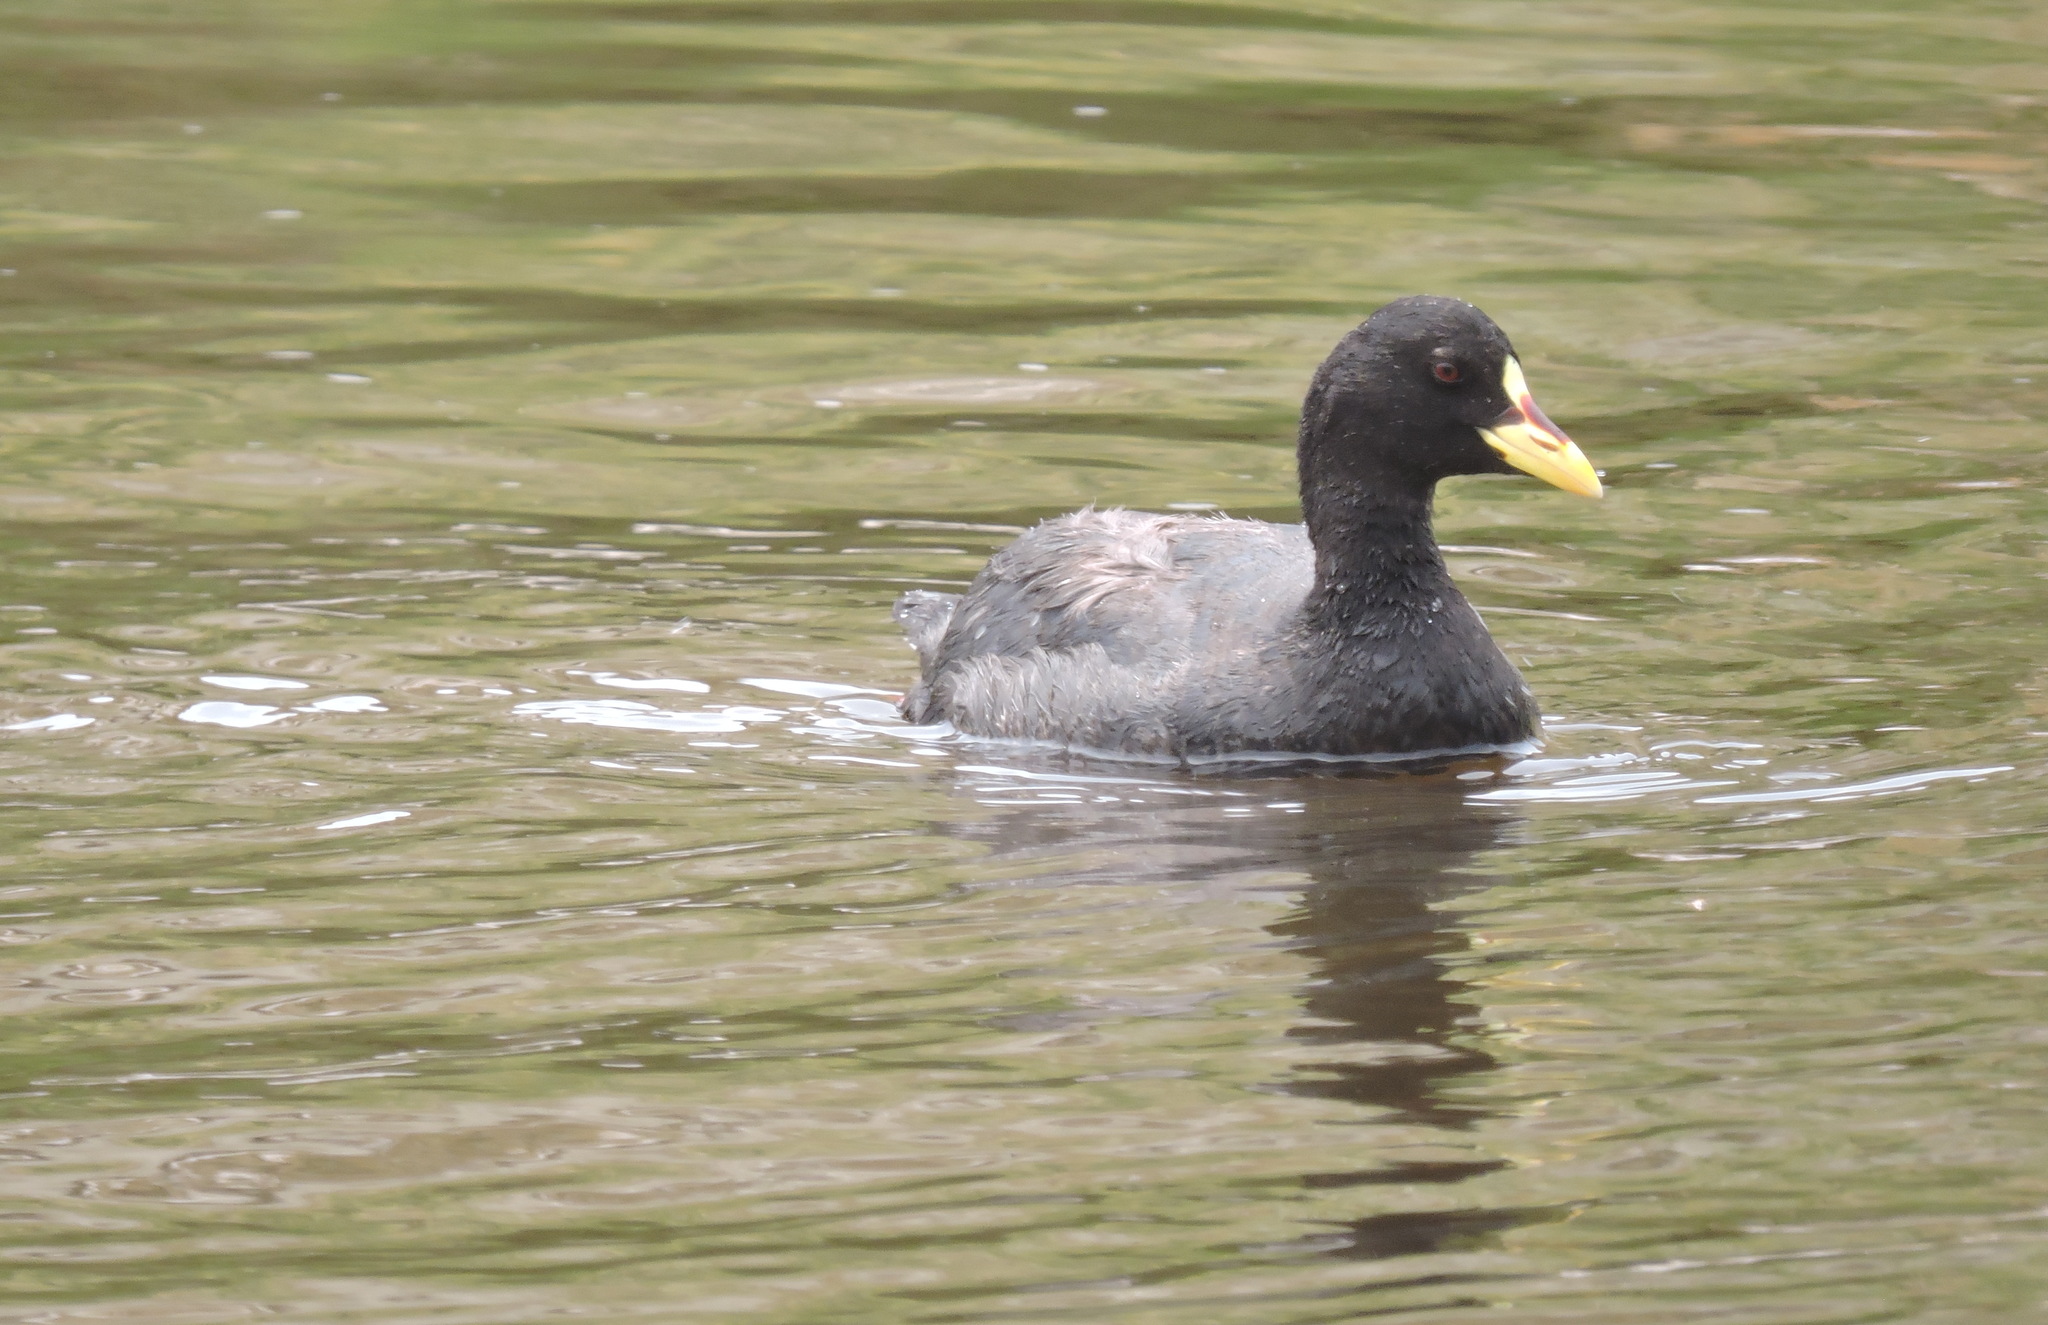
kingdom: Animalia
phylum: Chordata
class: Aves
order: Gruiformes
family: Rallidae
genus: Fulica
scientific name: Fulica armillata
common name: Red-gartered coot
